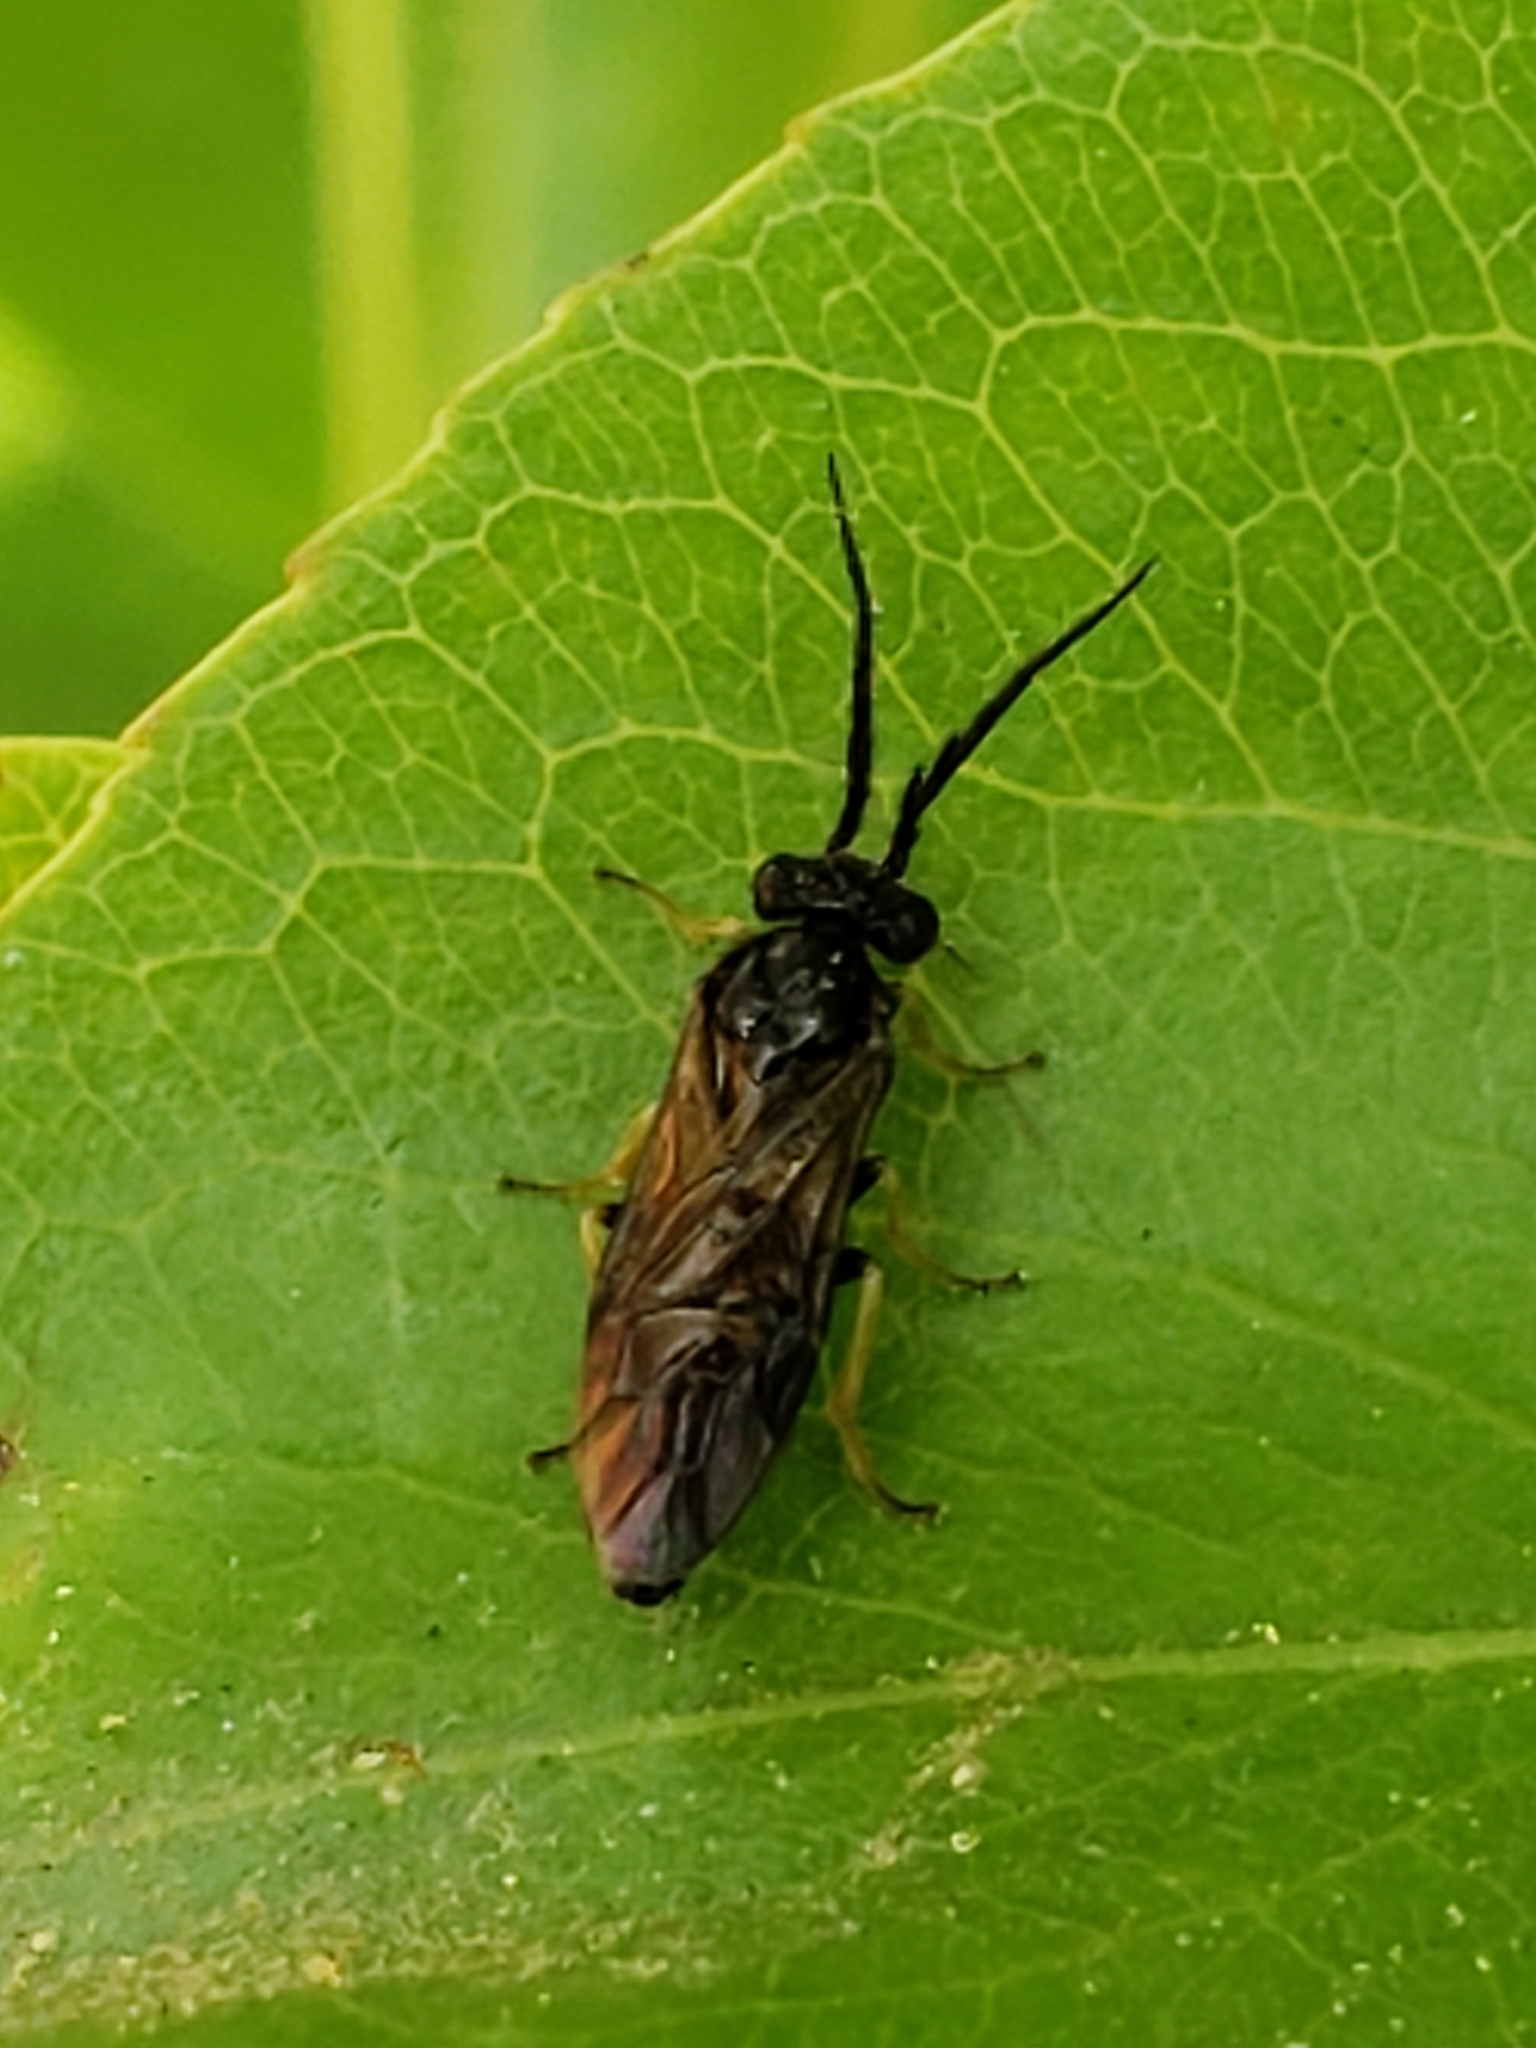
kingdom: Animalia
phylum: Arthropoda
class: Insecta
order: Hymenoptera
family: Tenthredinidae
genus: Cladius
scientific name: Cladius pectinicornis
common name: Sawfly
